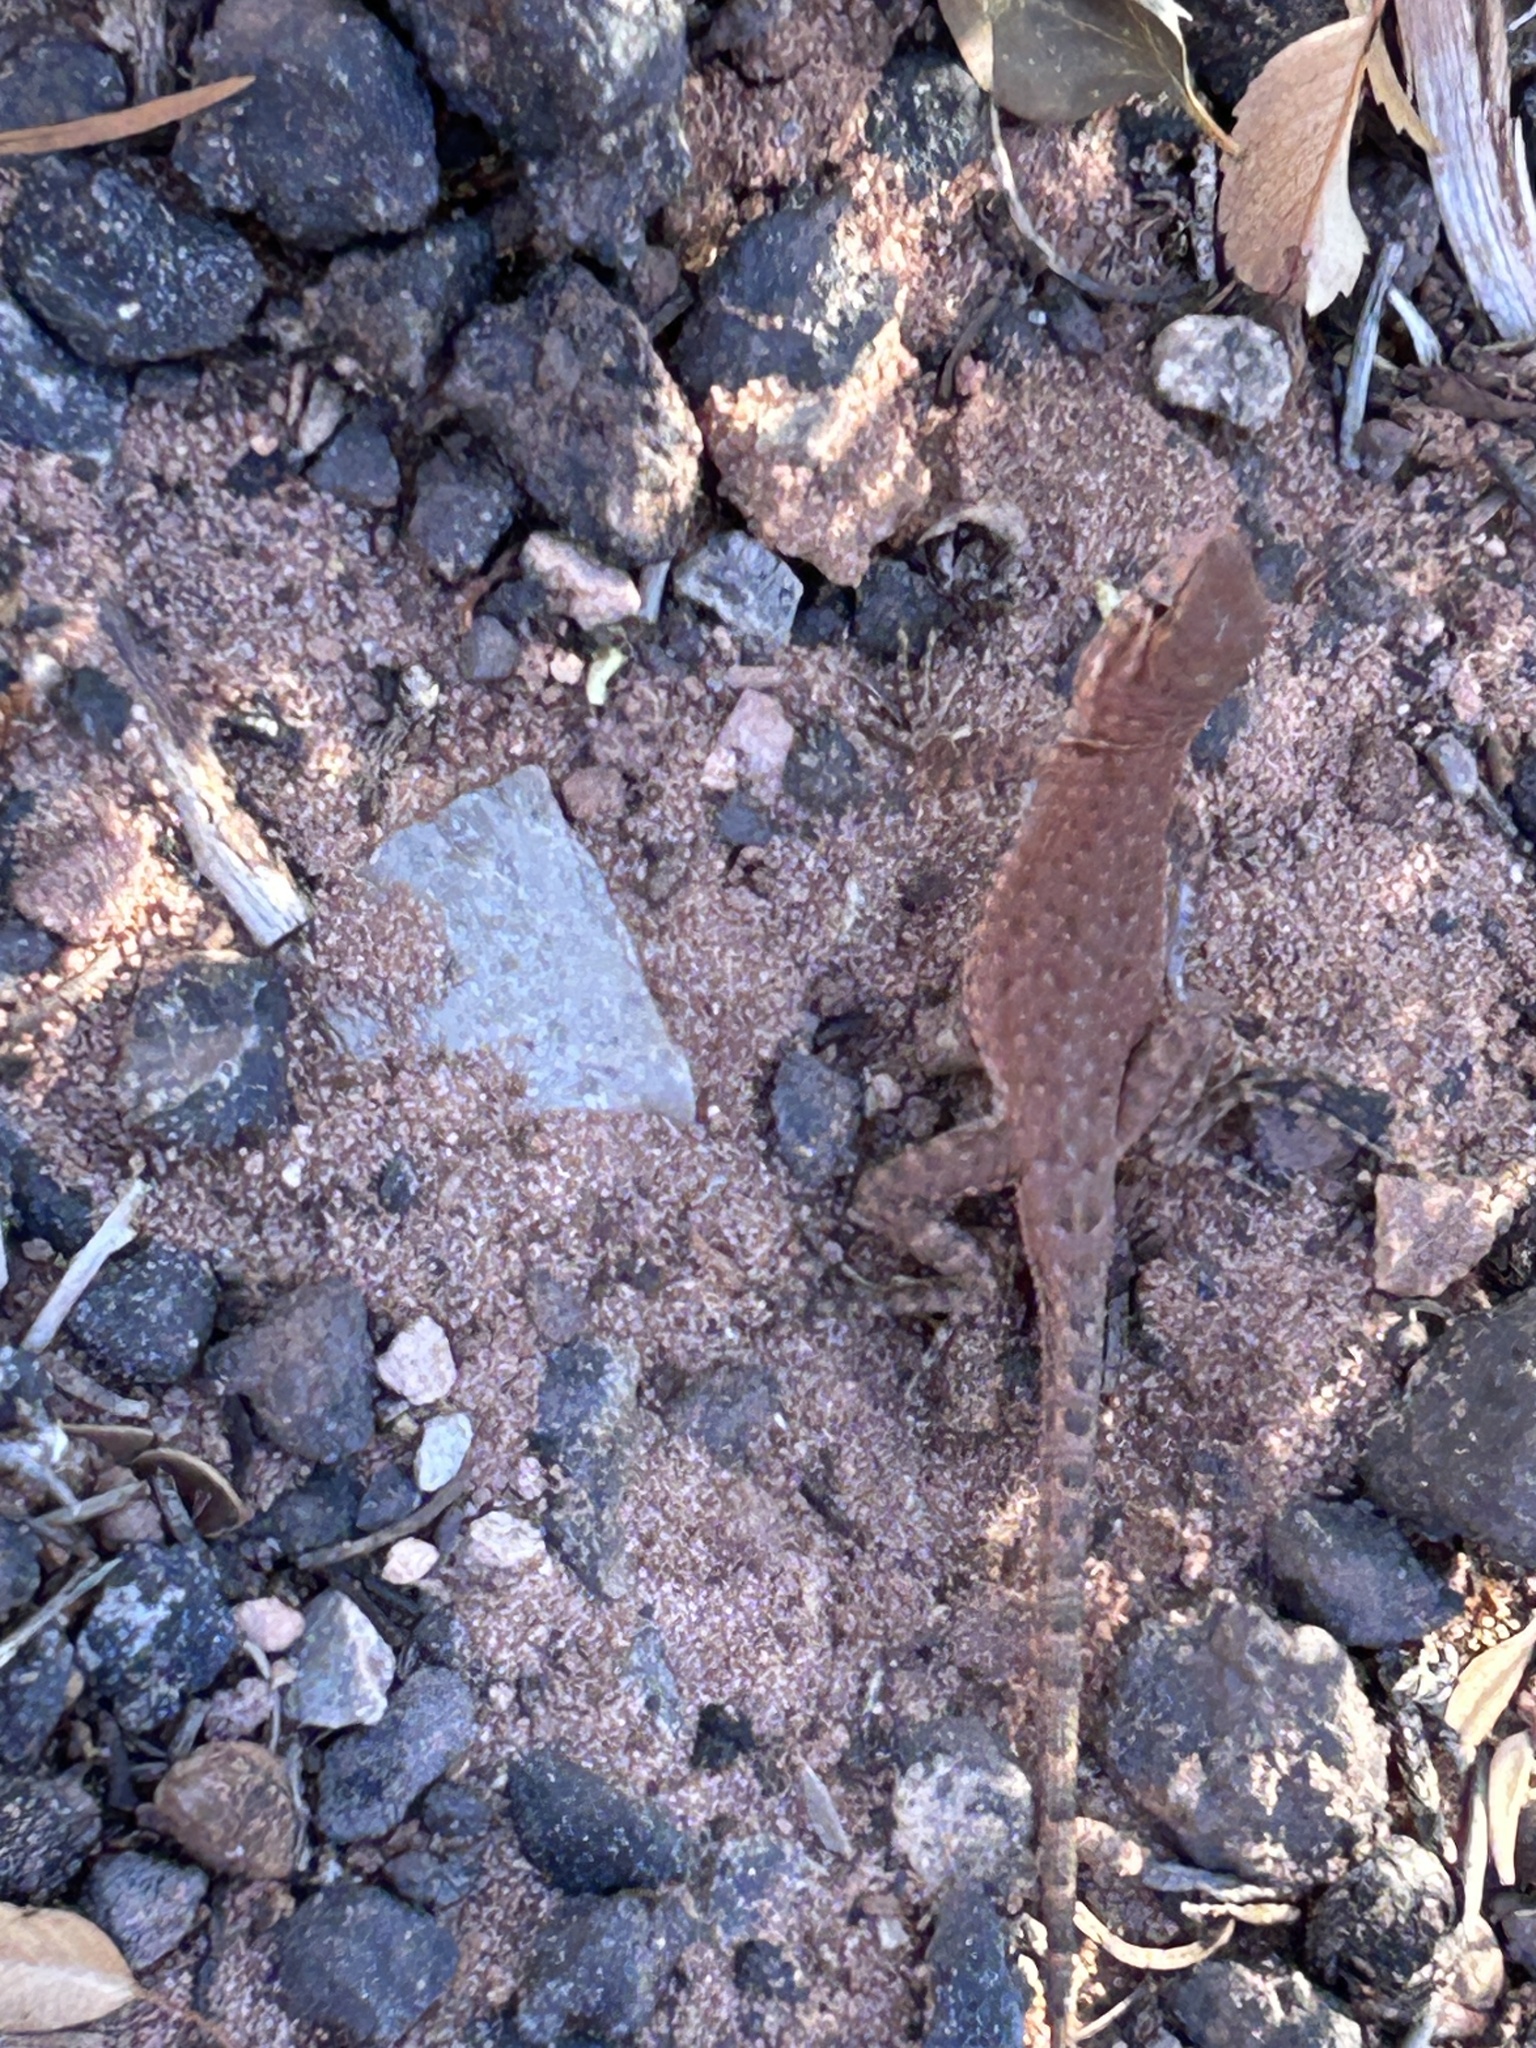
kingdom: Animalia
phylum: Chordata
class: Squamata
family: Phrynosomatidae
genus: Uta
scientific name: Uta stansburiana
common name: Side-blotched lizard
